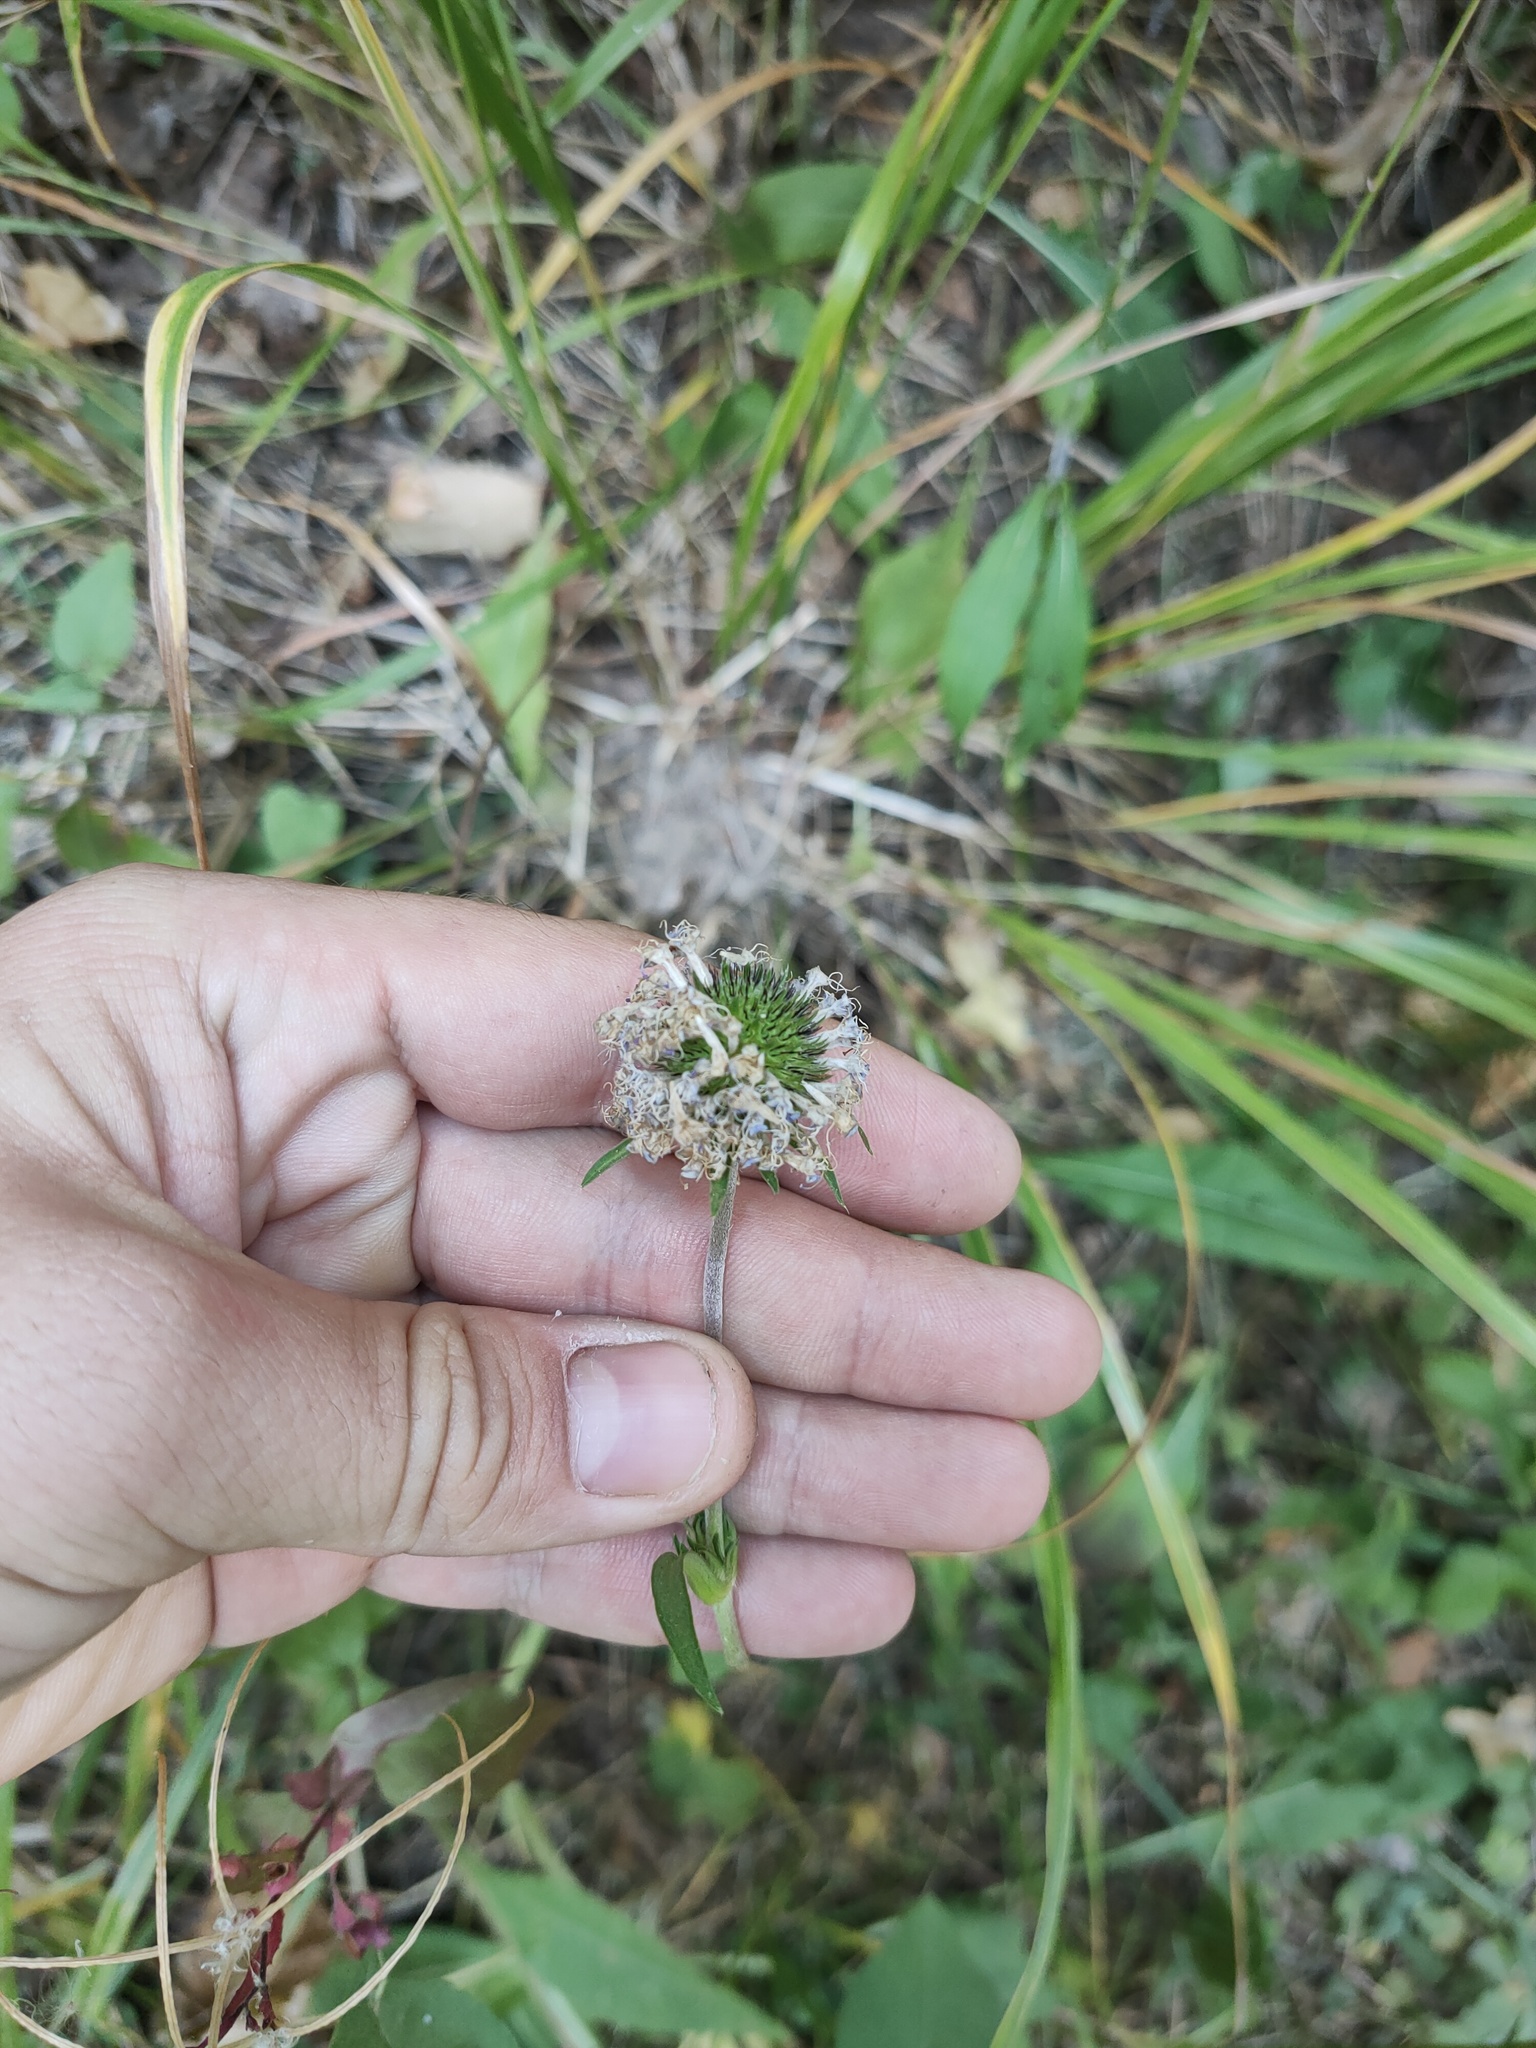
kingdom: Plantae
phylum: Tracheophyta
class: Magnoliopsida
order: Dipsacales
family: Caprifoliaceae
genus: Succisa
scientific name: Succisa pratensis
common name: Devil's-bit
